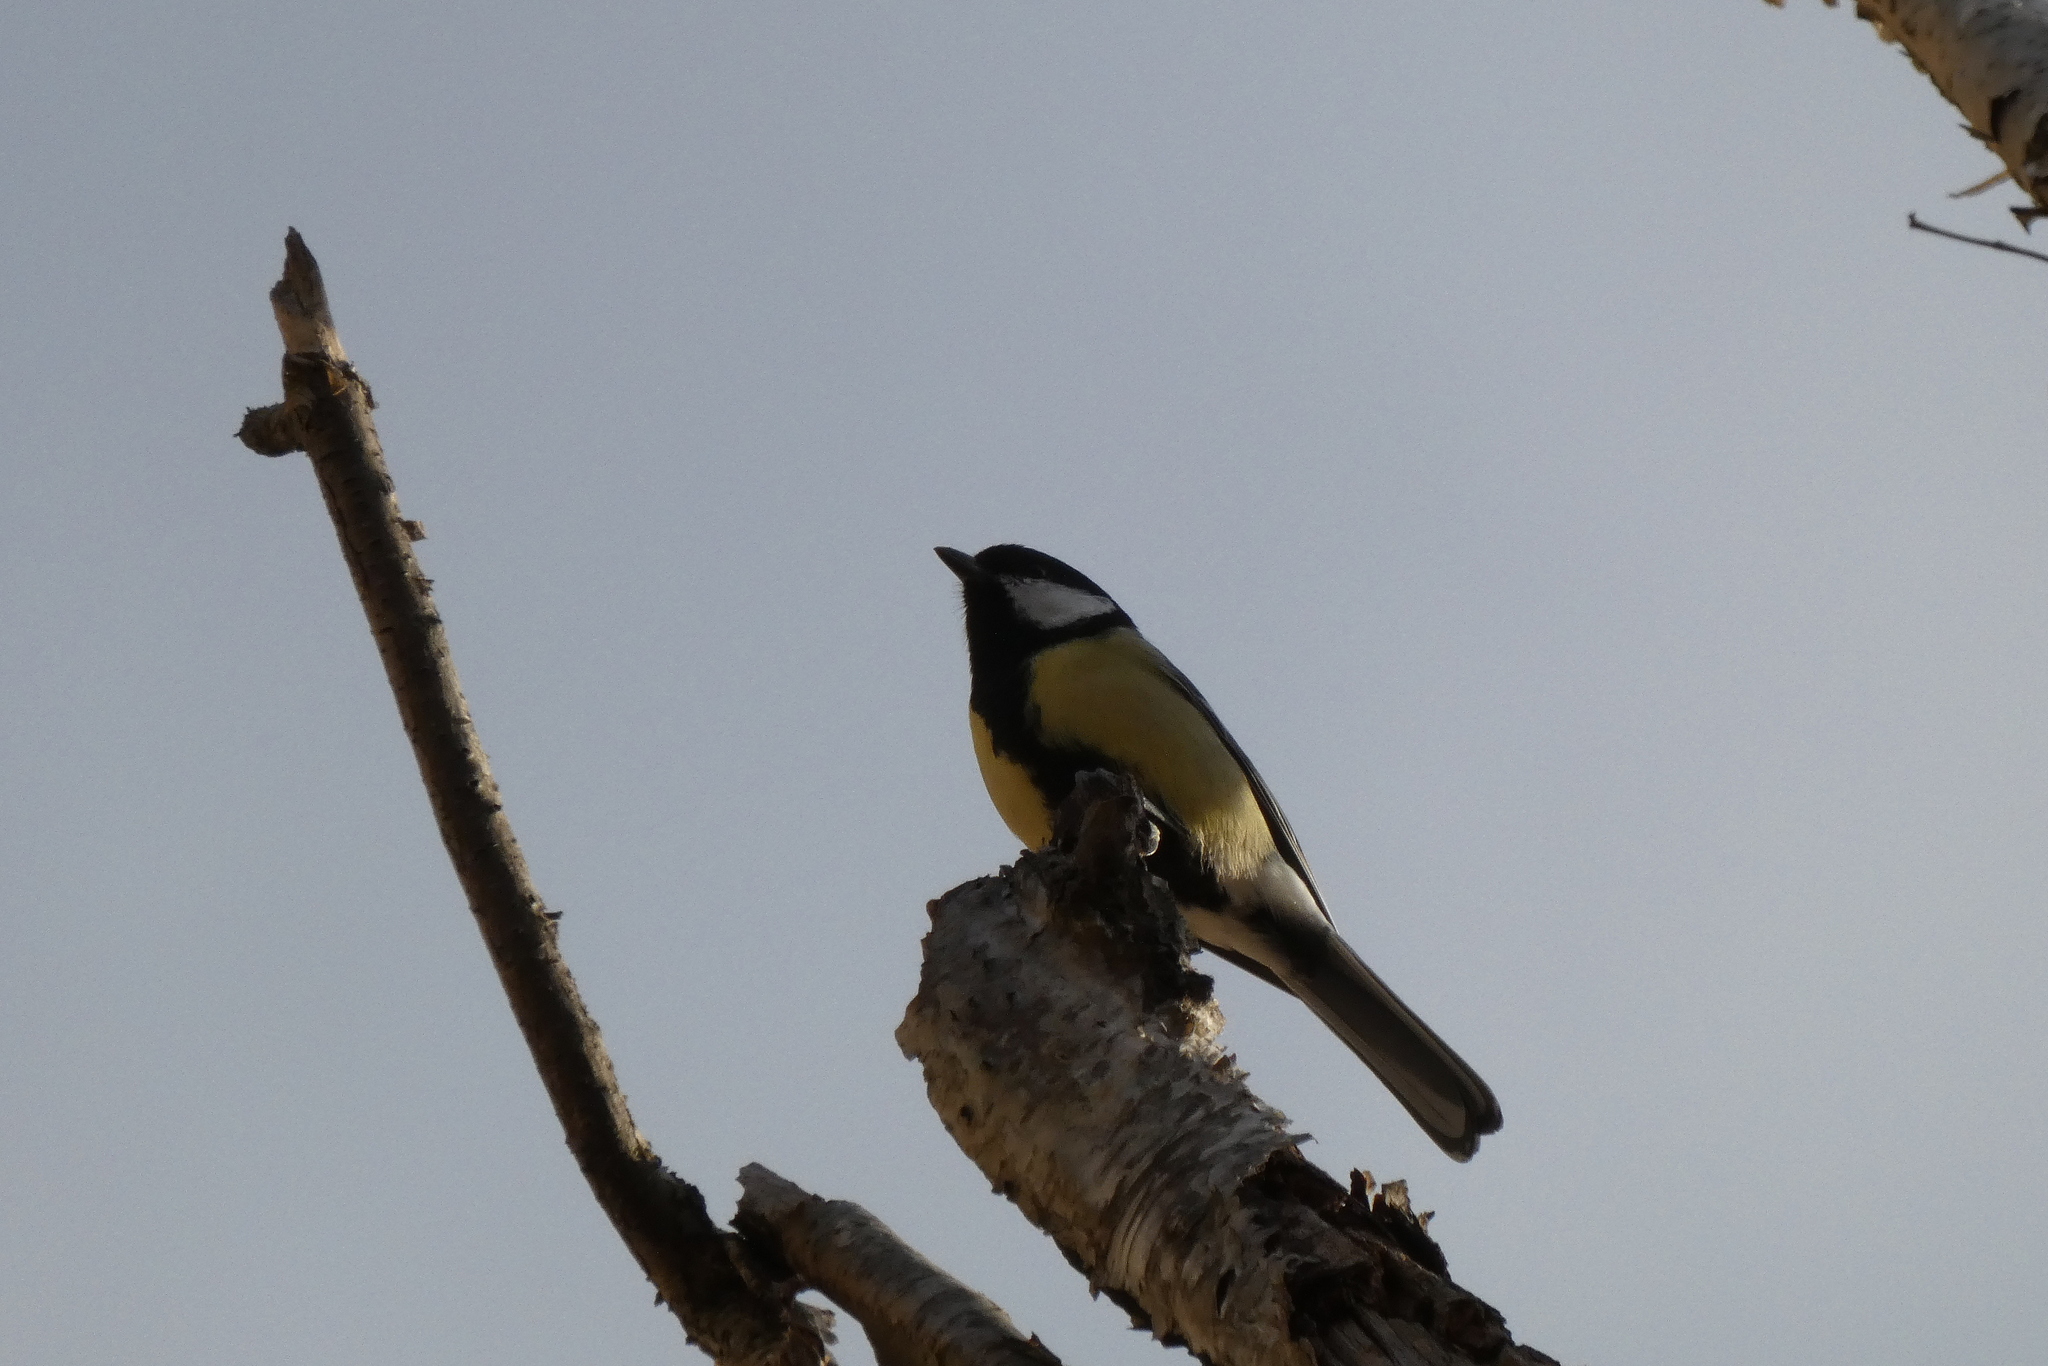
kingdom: Animalia
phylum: Chordata
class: Aves
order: Passeriformes
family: Paridae
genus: Parus
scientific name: Parus major
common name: Great tit
